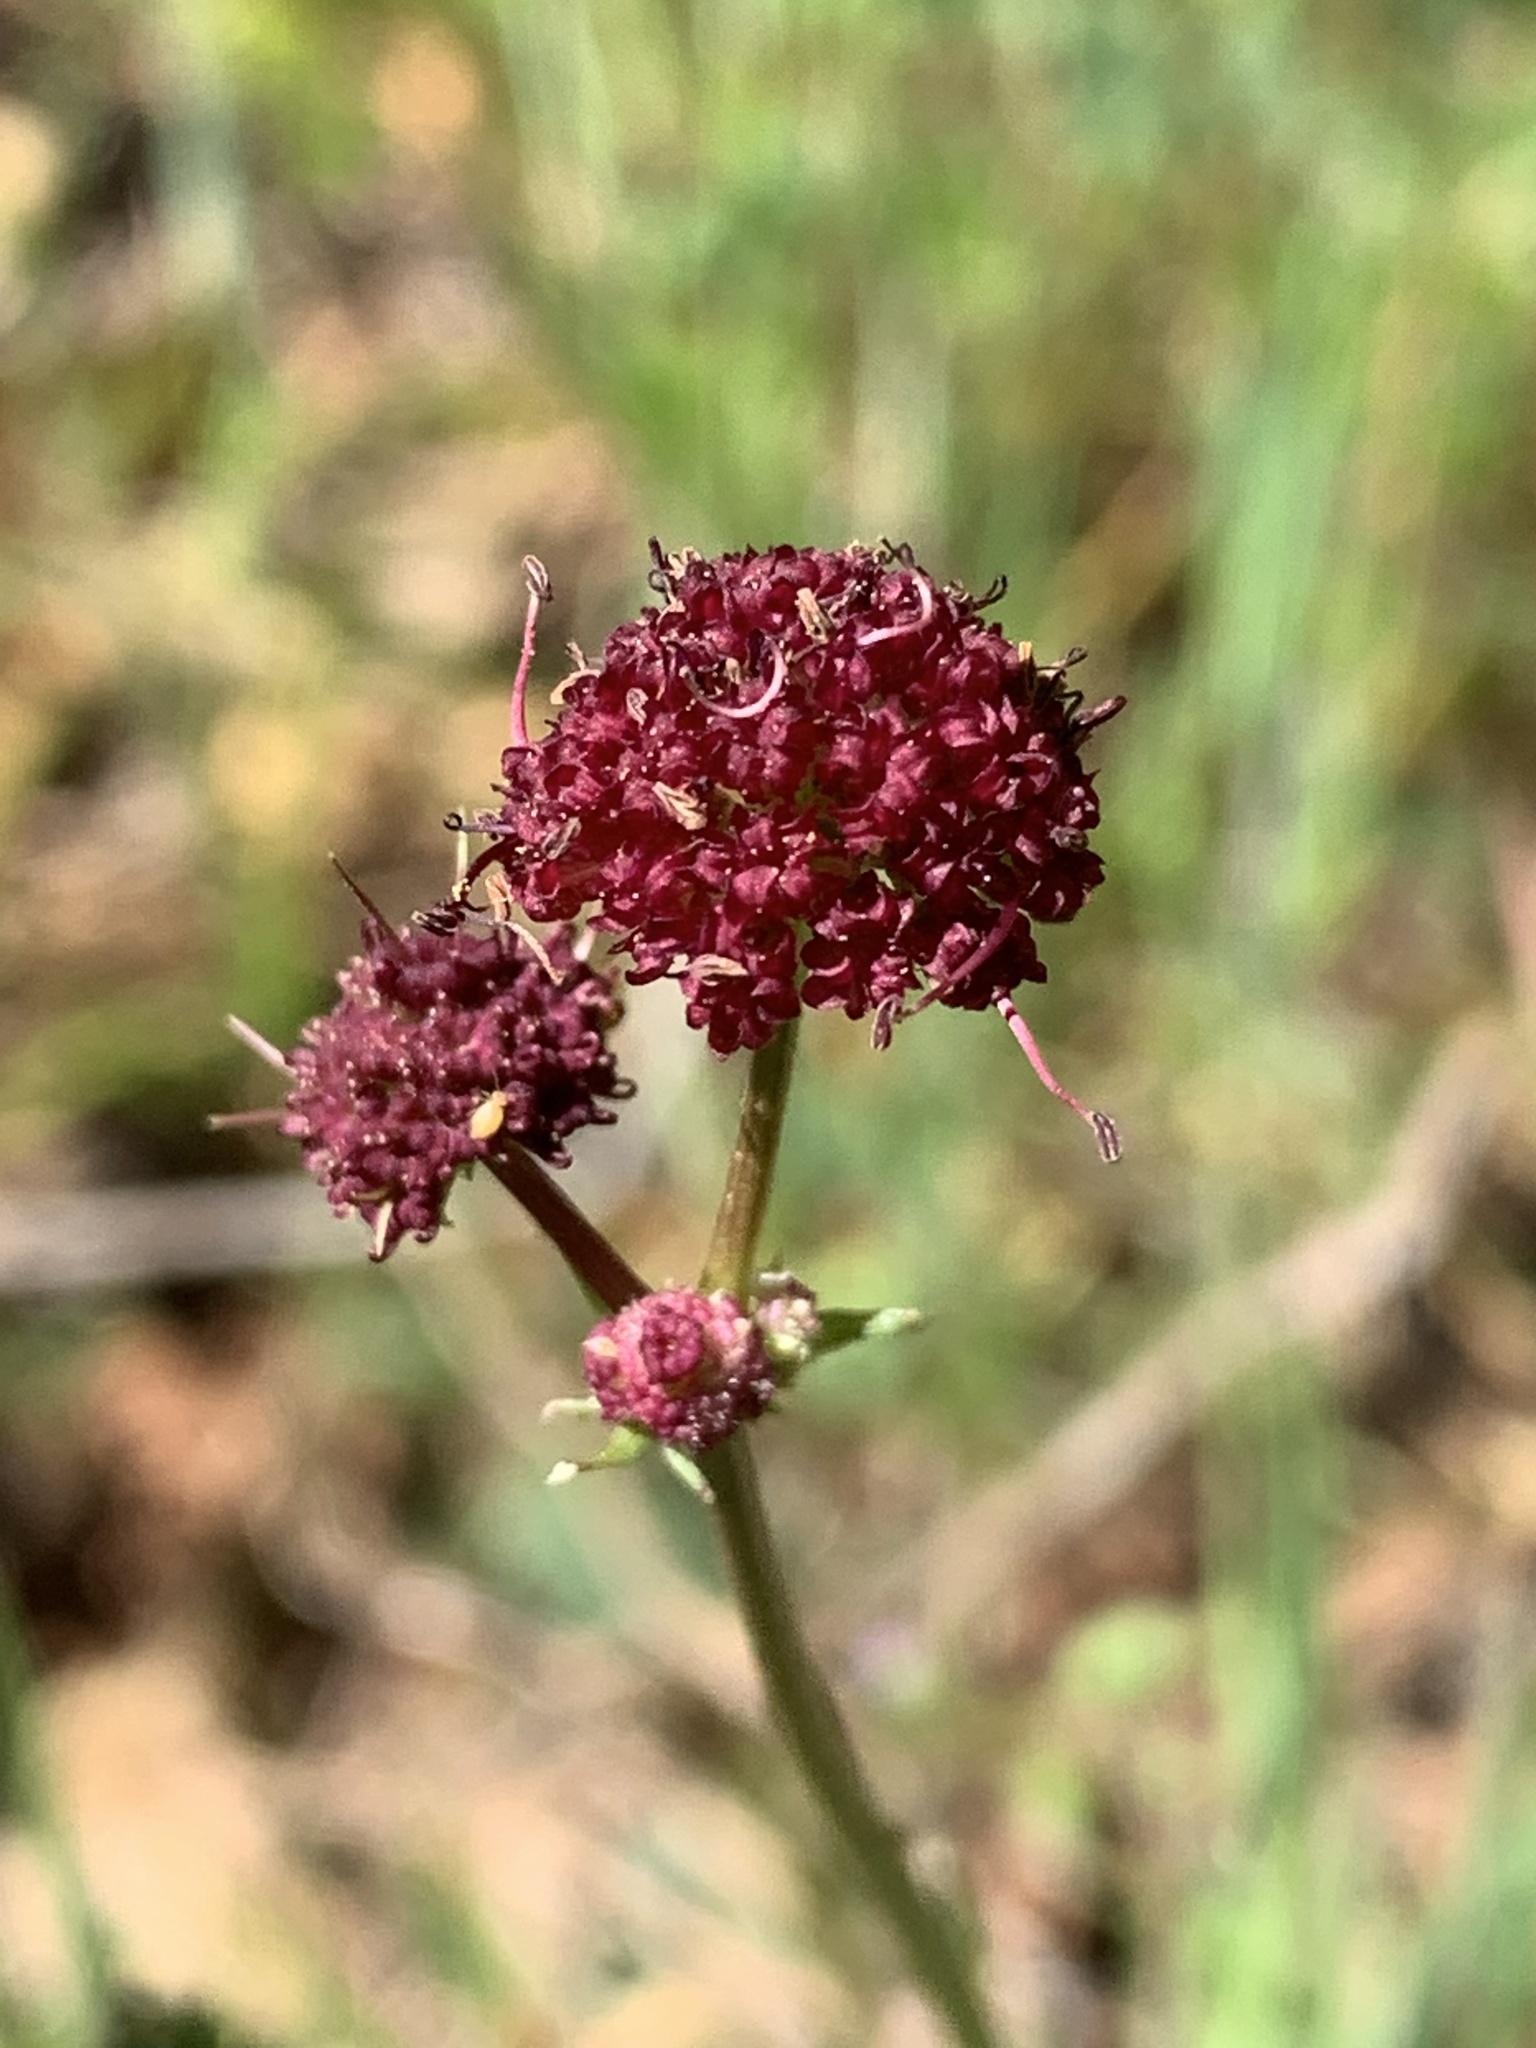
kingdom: Plantae
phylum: Tracheophyta
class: Magnoliopsida
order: Apiales
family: Apiaceae
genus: Sanicula
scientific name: Sanicula bipinnatifida
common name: Shoe-buttons
